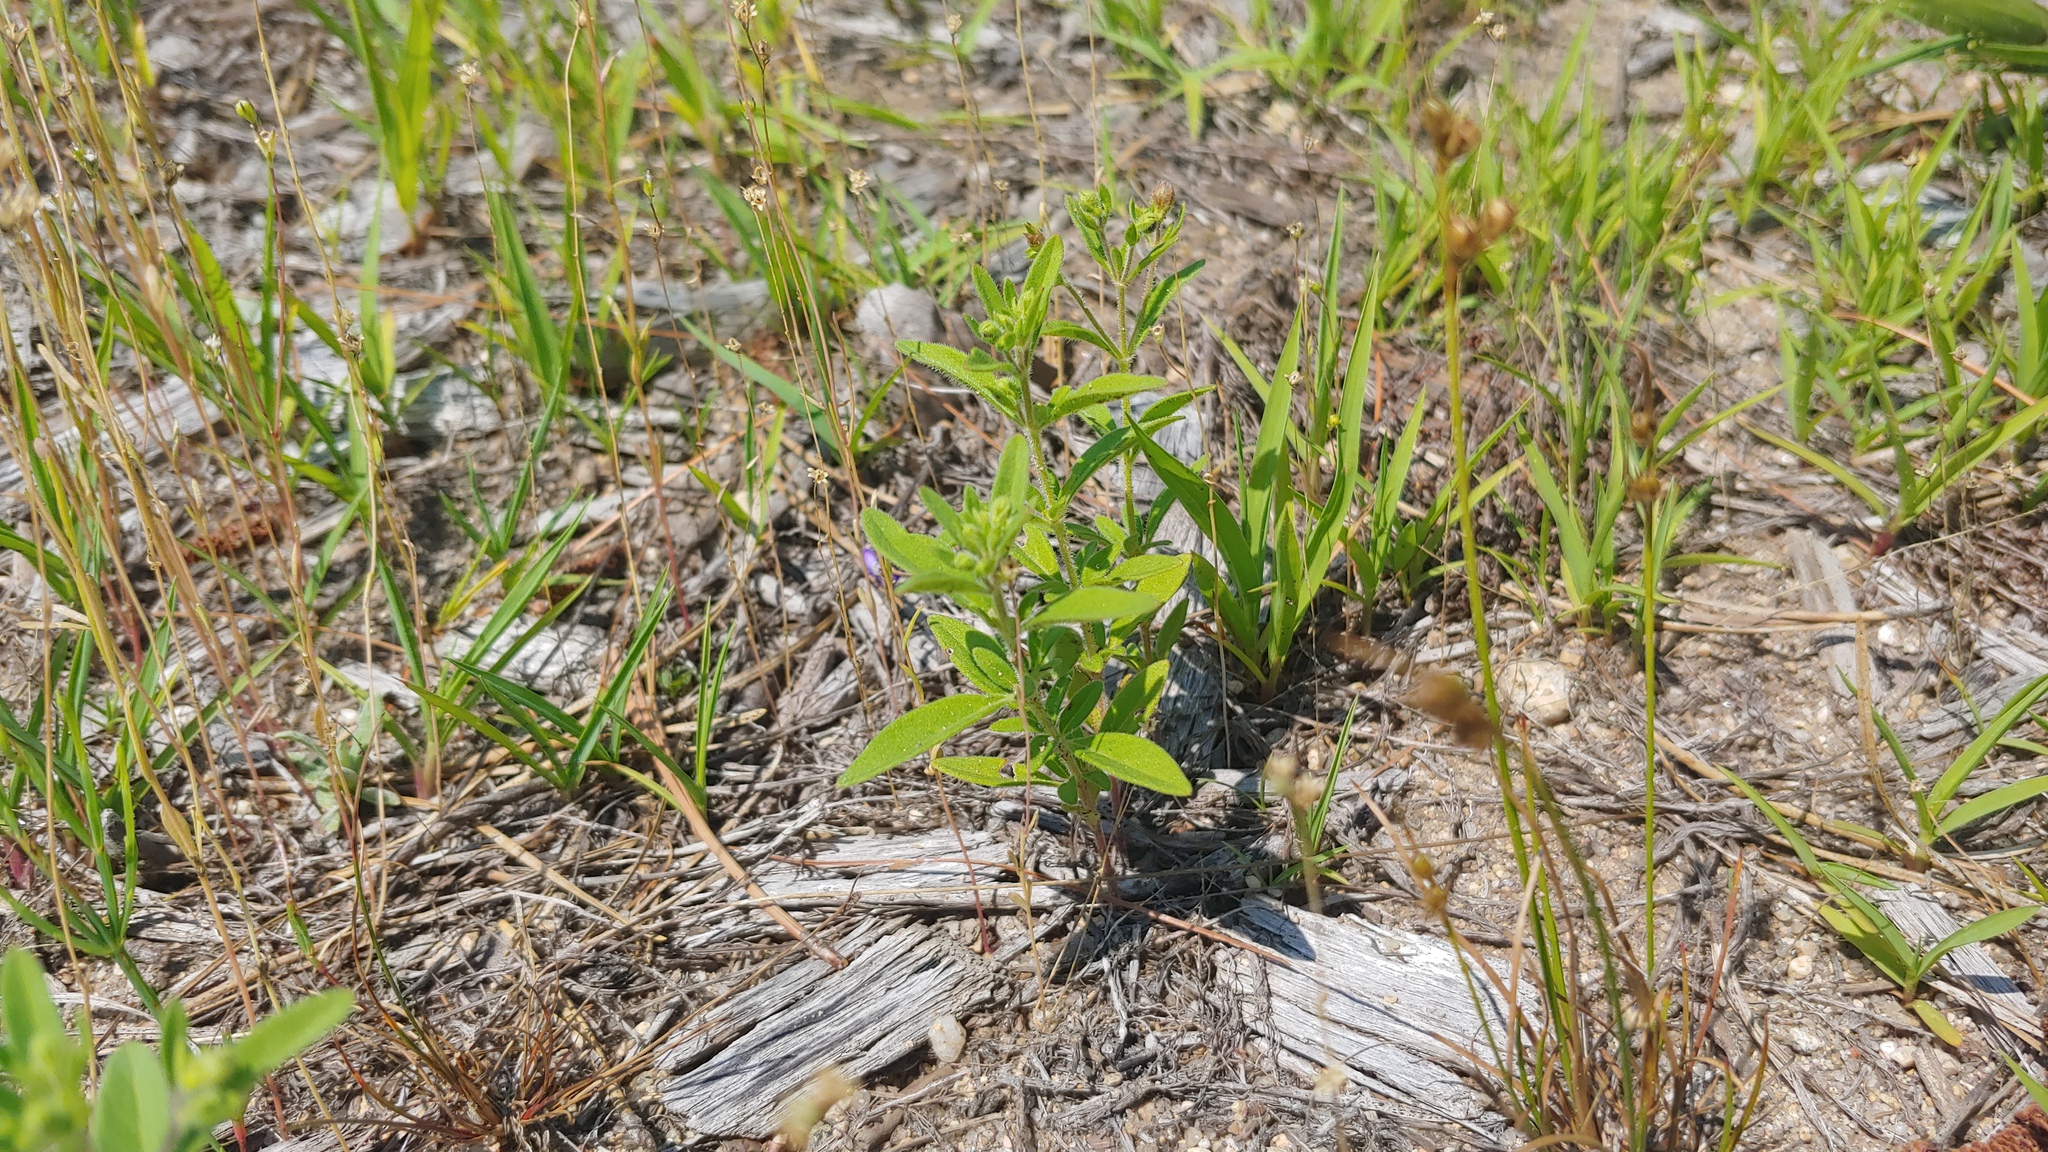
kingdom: Plantae
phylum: Tracheophyta
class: Magnoliopsida
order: Lamiales
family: Lamiaceae
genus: Trichostema
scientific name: Trichostema dichotomum
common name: Bastard pennyroyal
